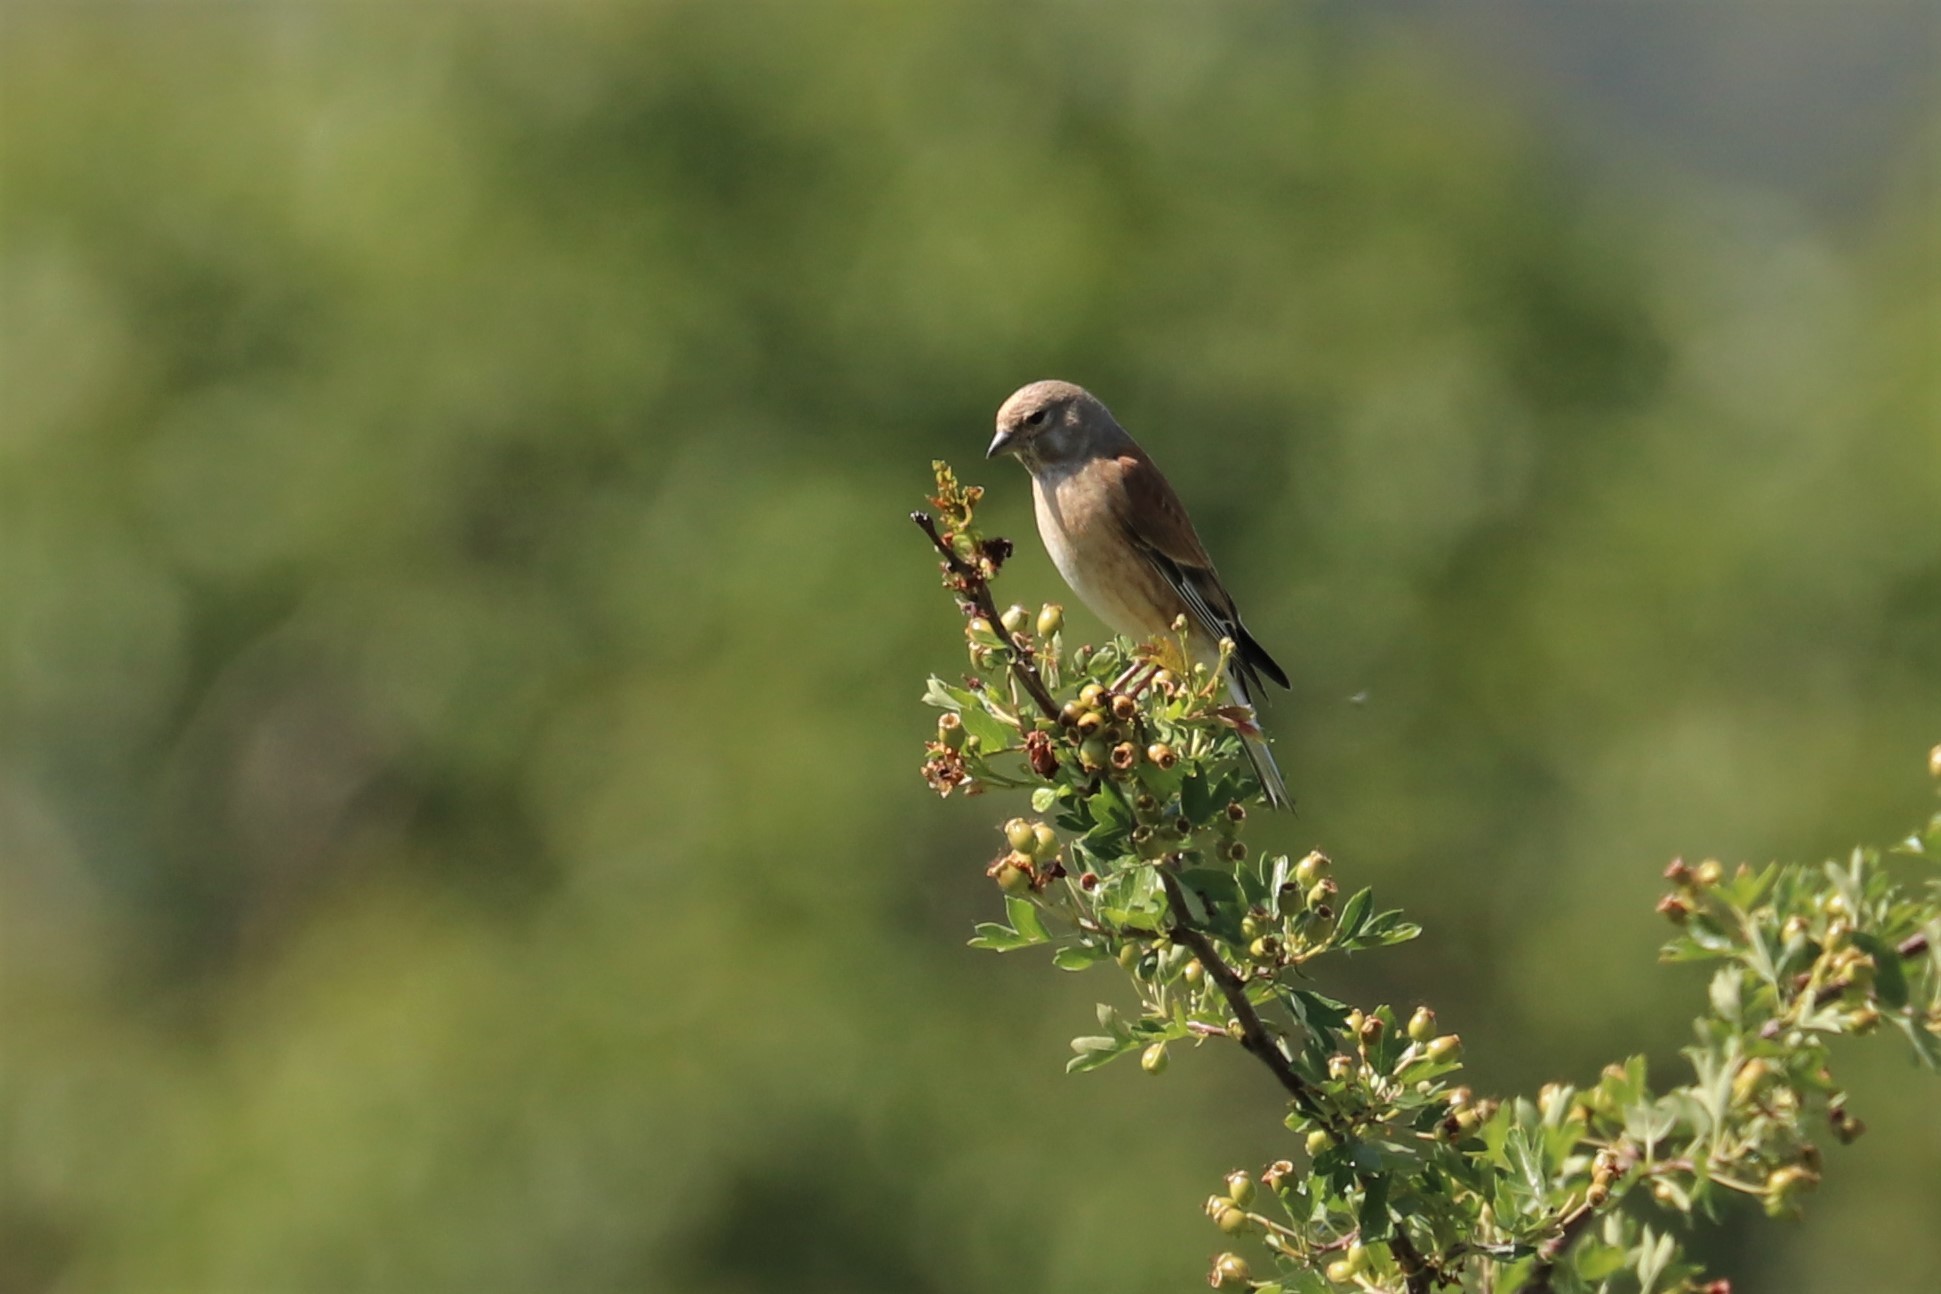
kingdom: Animalia
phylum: Chordata
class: Aves
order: Passeriformes
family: Fringillidae
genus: Linaria
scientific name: Linaria cannabina
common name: Common linnet
